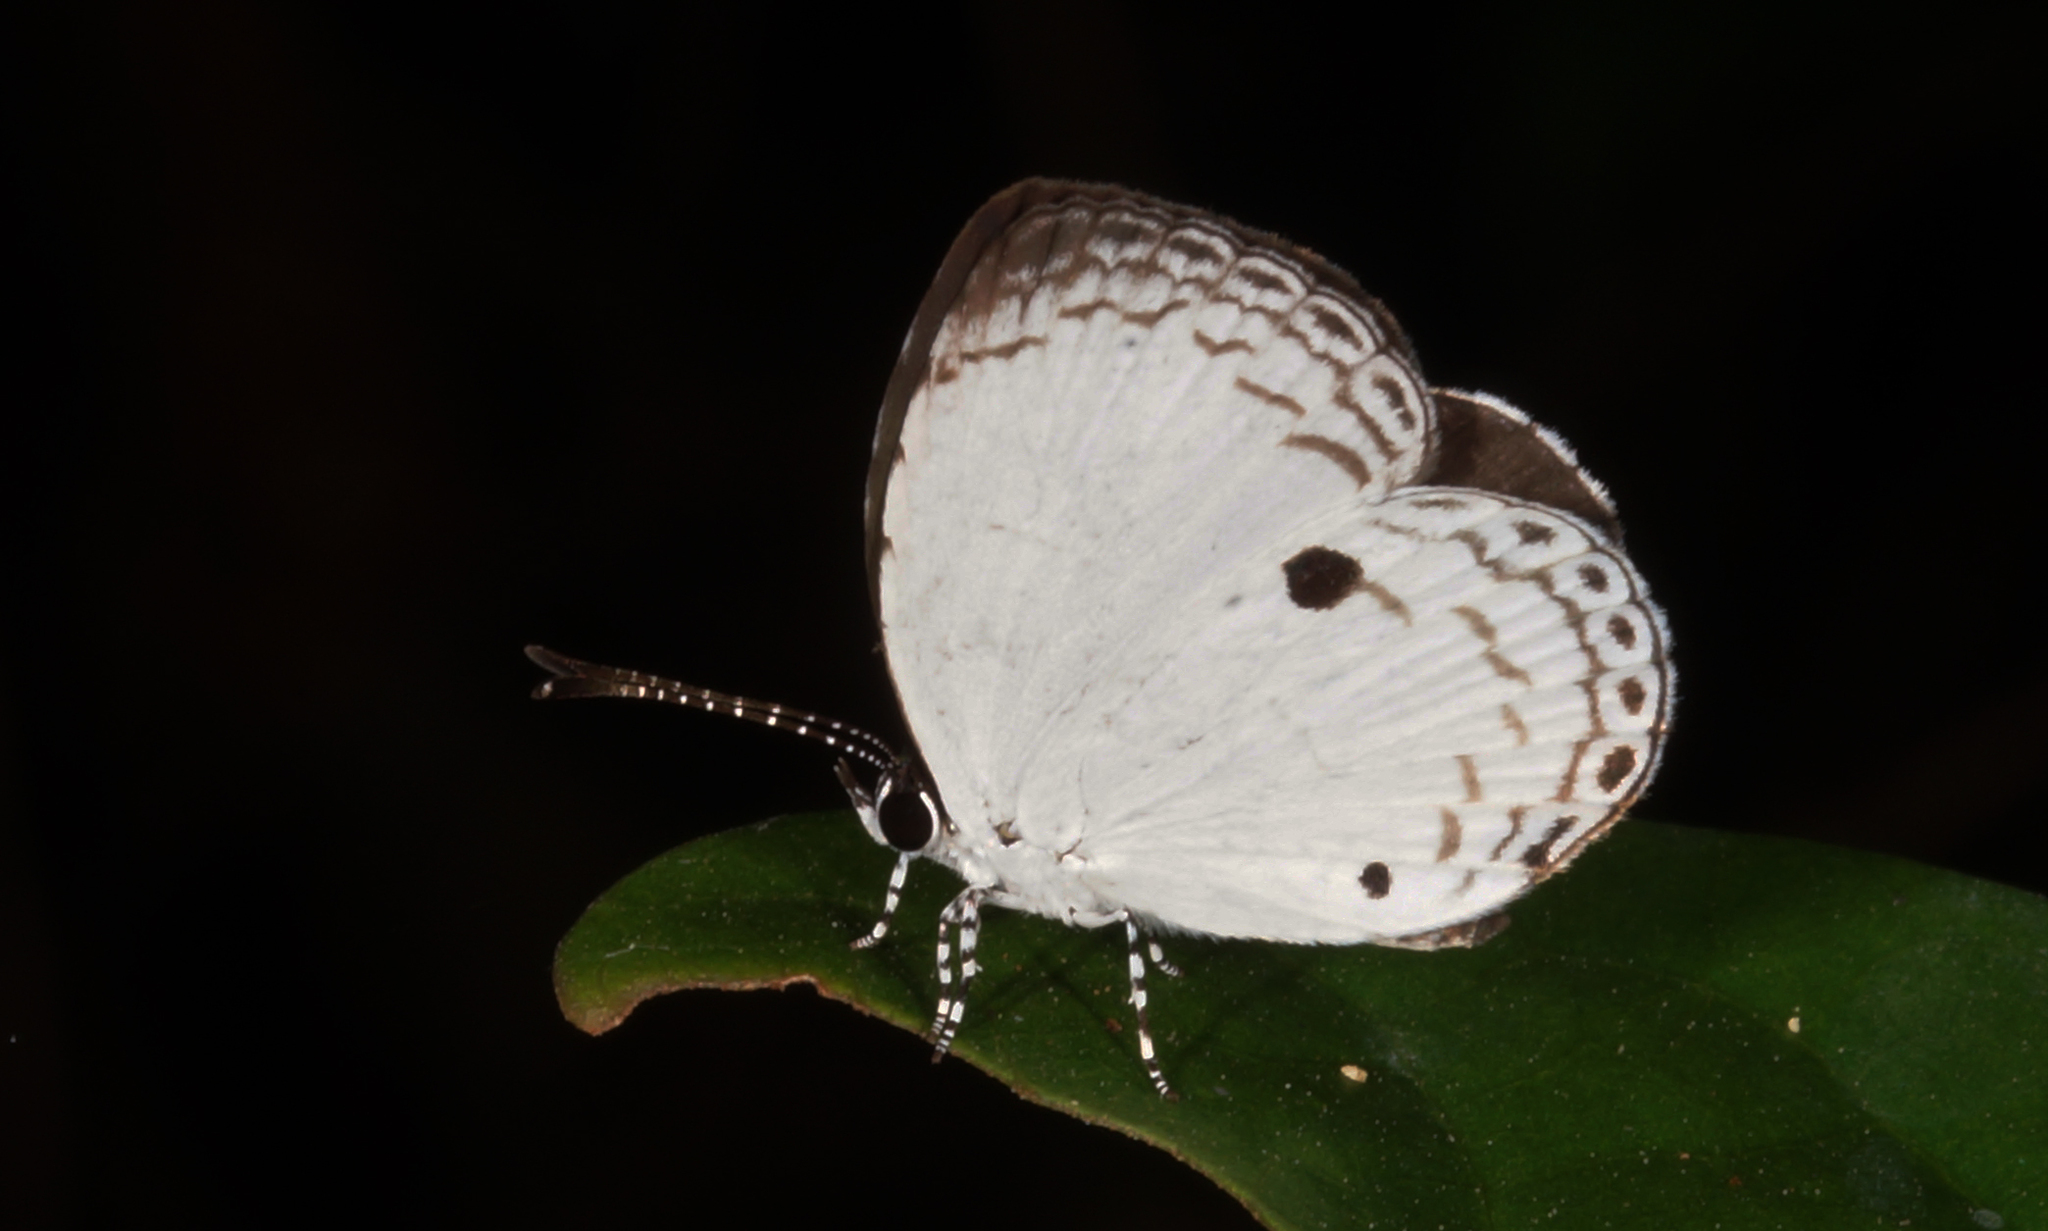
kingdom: Animalia
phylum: Arthropoda
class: Insecta
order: Lepidoptera
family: Lycaenidae
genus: Neopithecops
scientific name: Neopithecops zalmora
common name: Quaker
